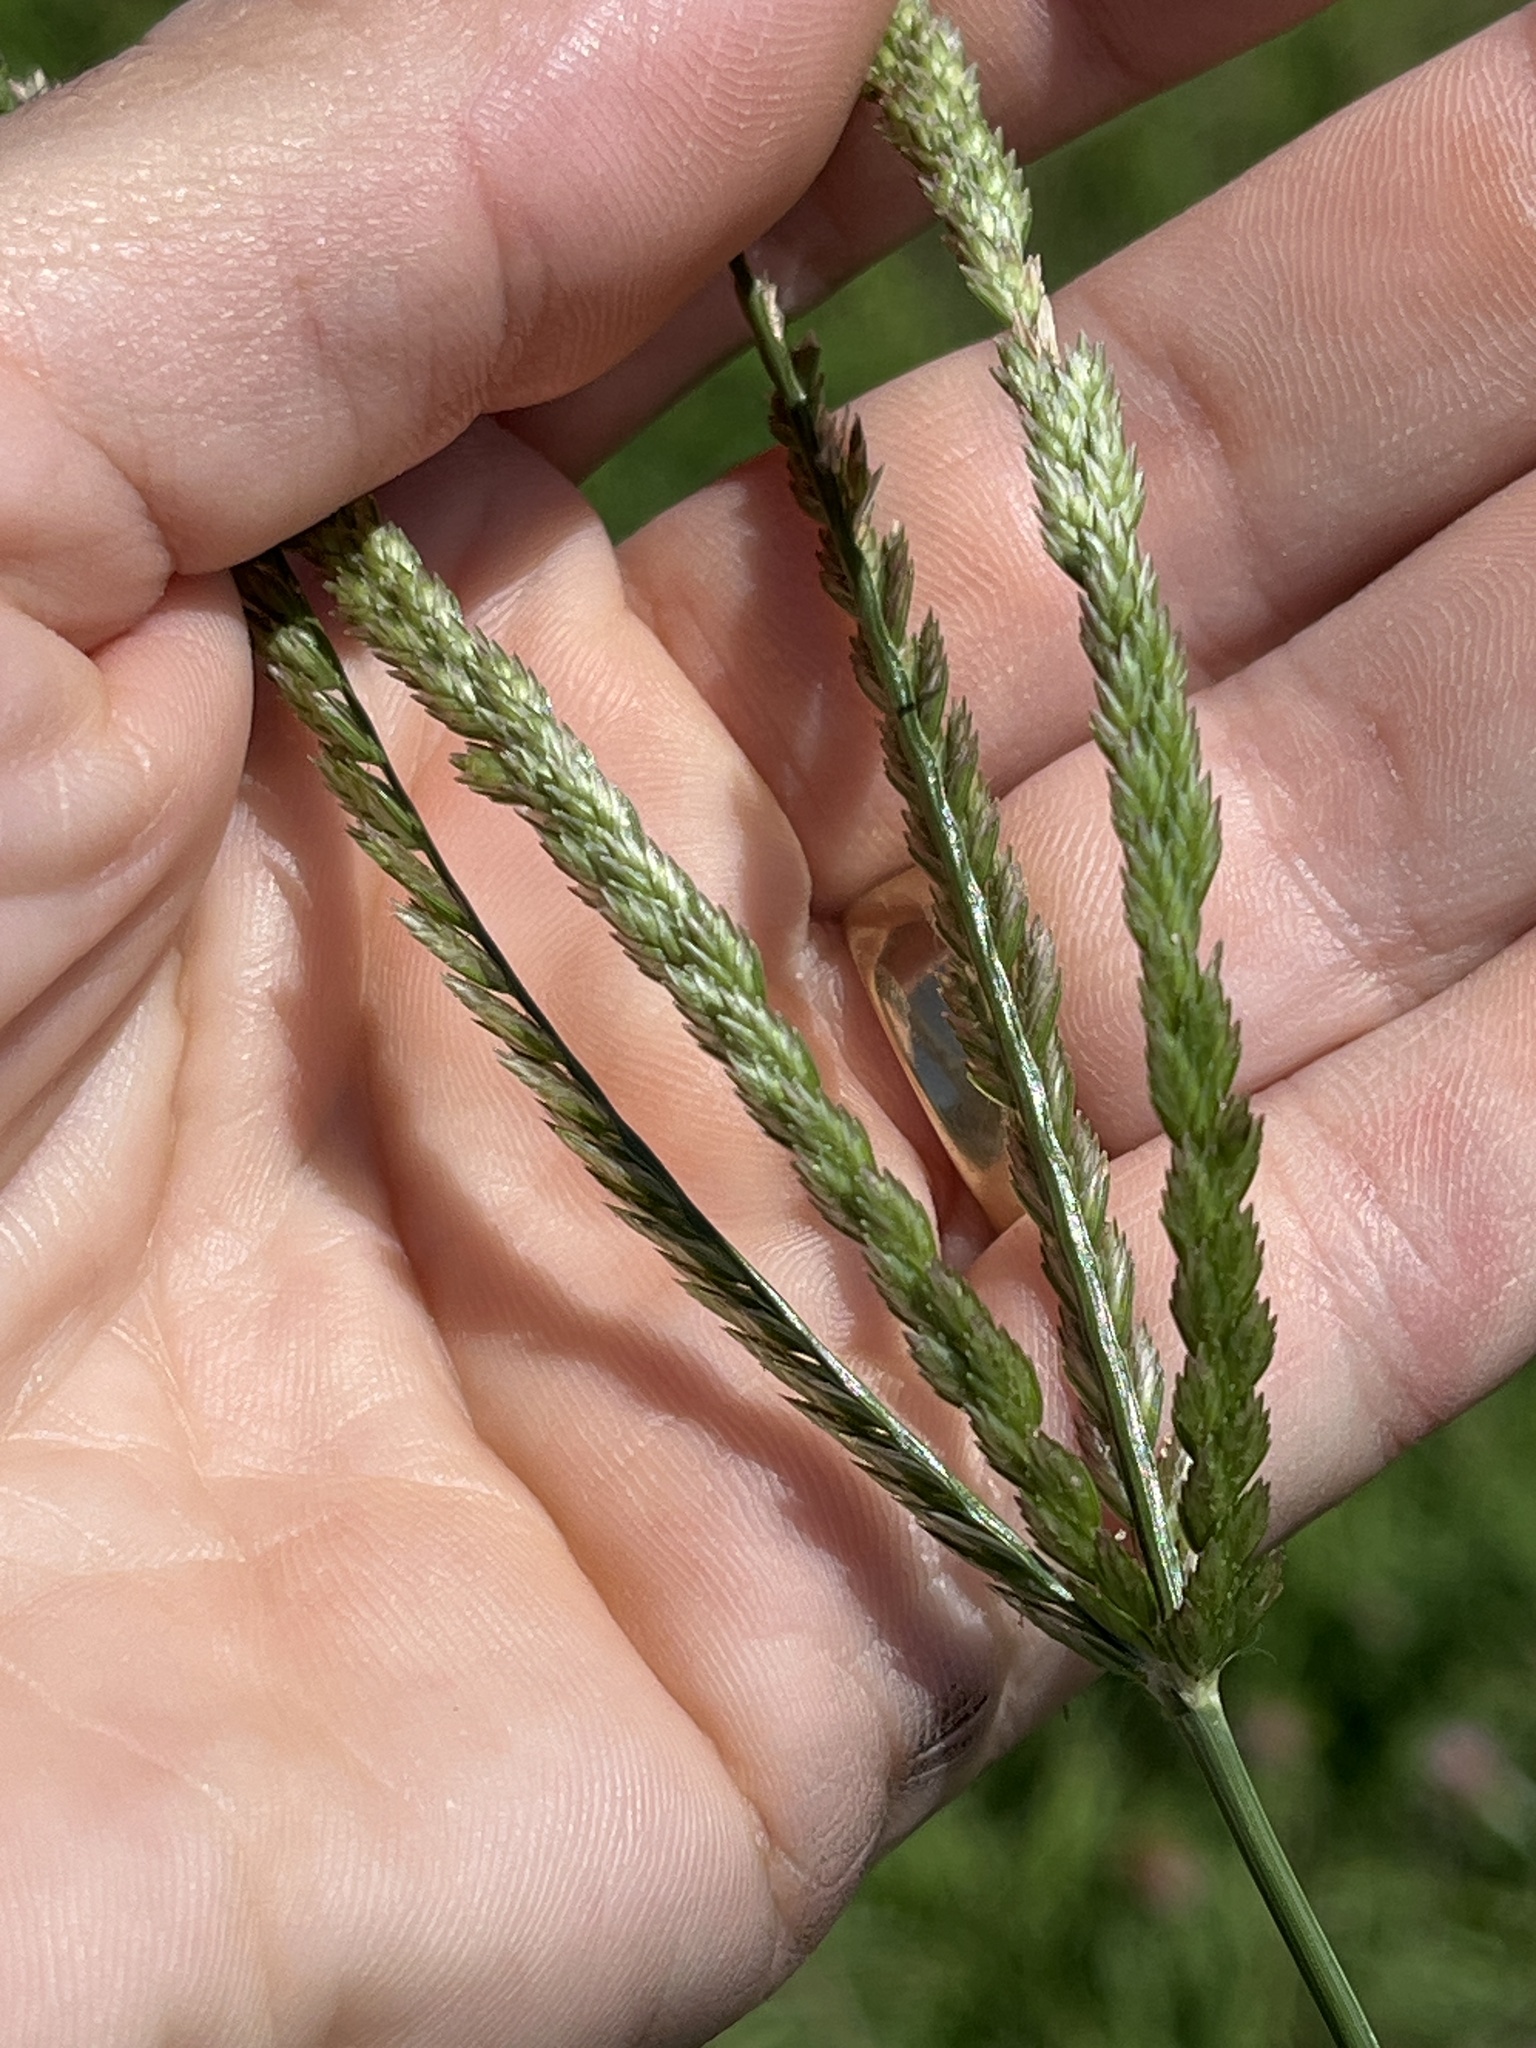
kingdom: Plantae
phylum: Tracheophyta
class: Liliopsida
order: Poales
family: Poaceae
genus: Eleusine
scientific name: Eleusine indica
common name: Yard-grass
